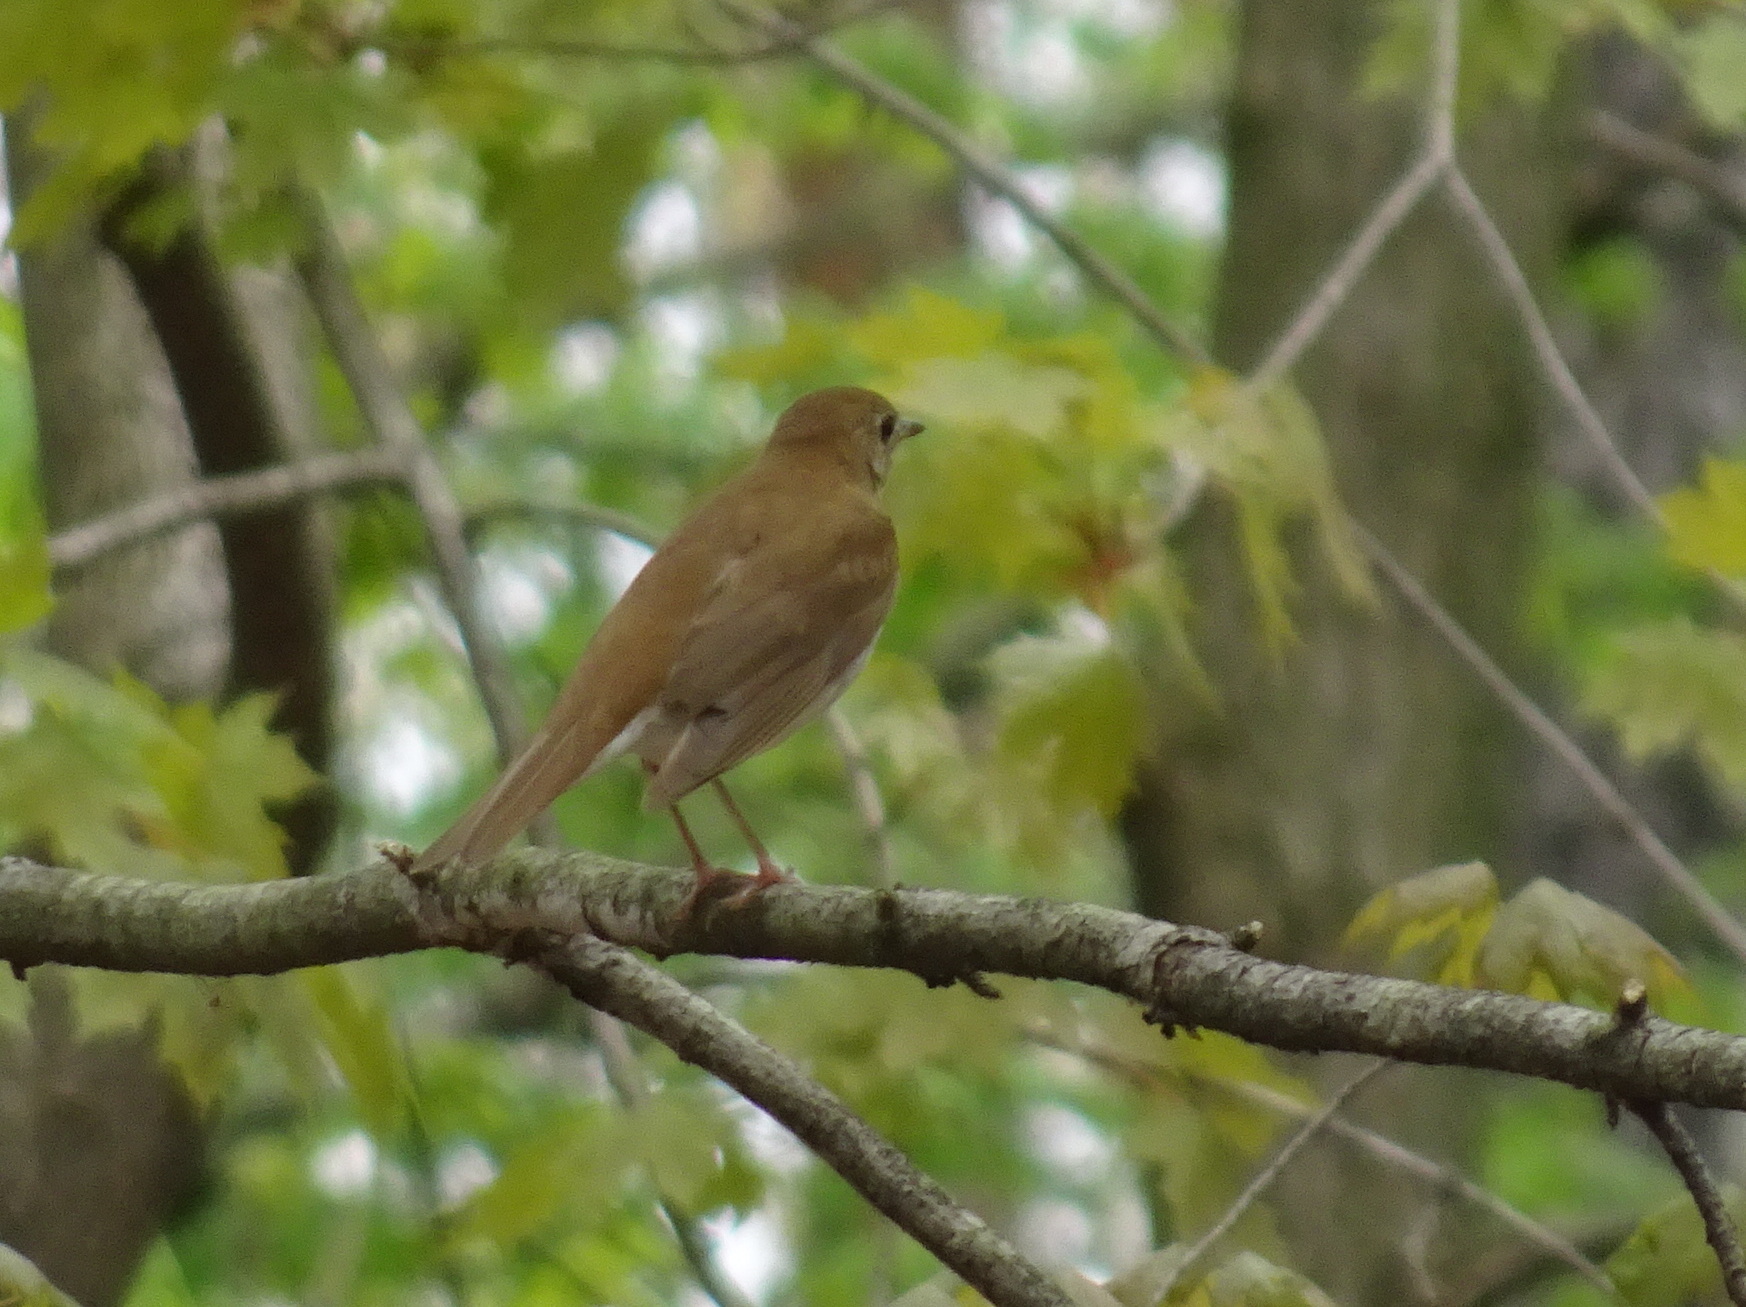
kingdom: Animalia
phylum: Chordata
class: Aves
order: Passeriformes
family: Turdidae
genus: Catharus
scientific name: Catharus fuscescens
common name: Veery
